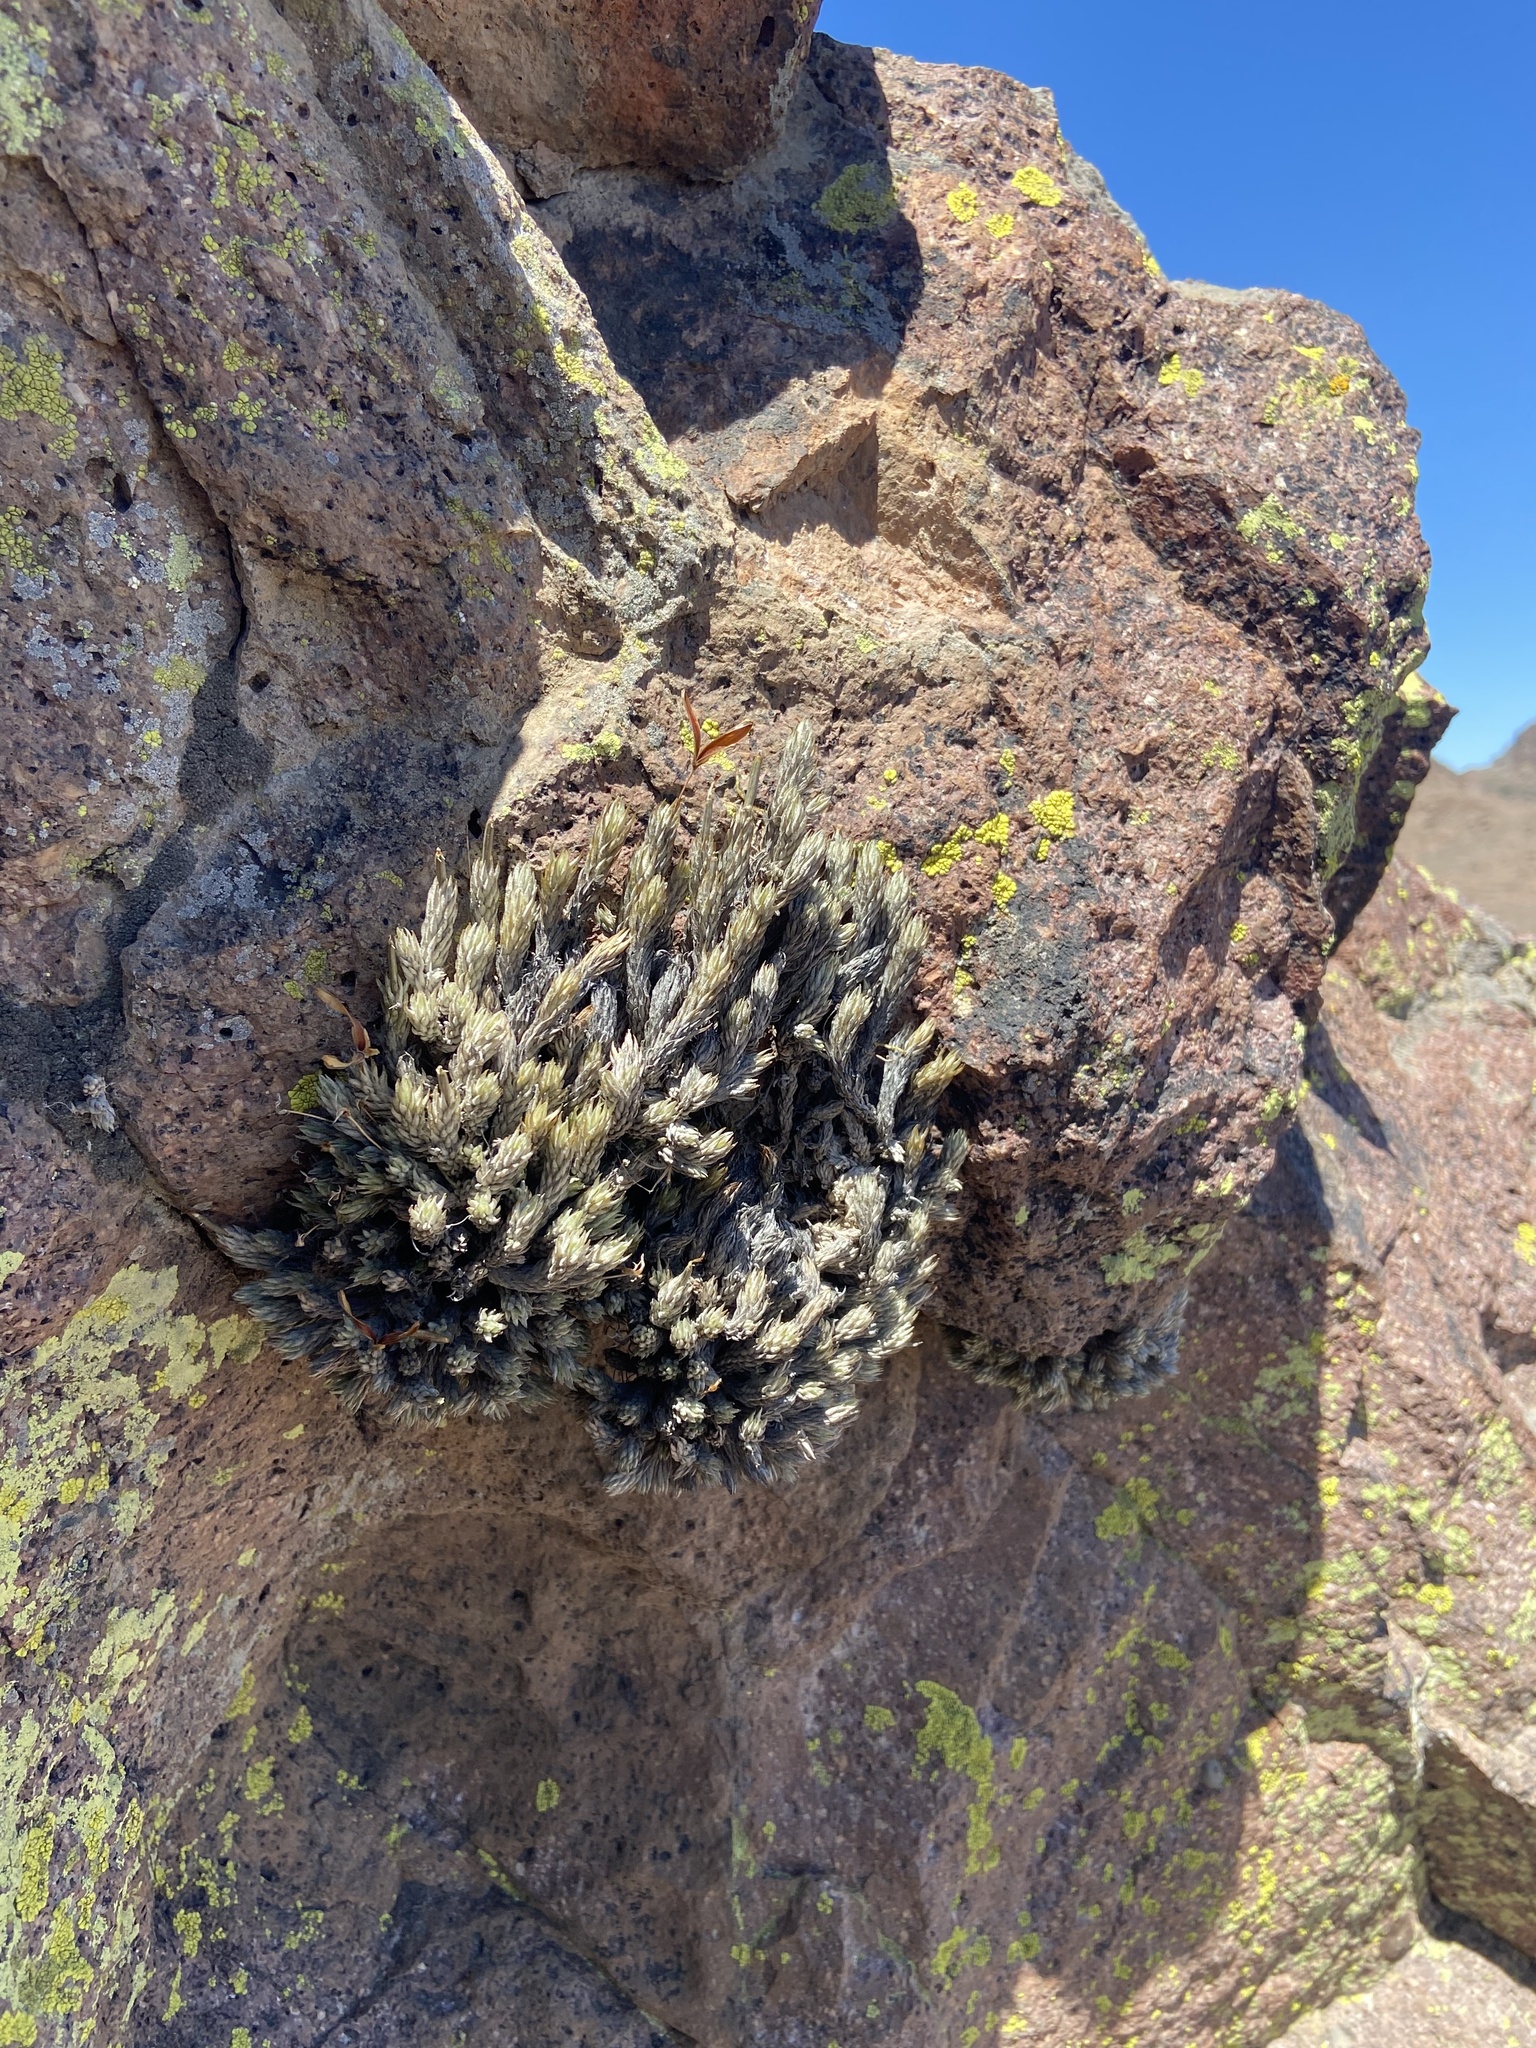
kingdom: Plantae
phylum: Tracheophyta
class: Liliopsida
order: Poales
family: Bromeliaceae
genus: Tillandsia
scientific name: Tillandsia pedicellata
